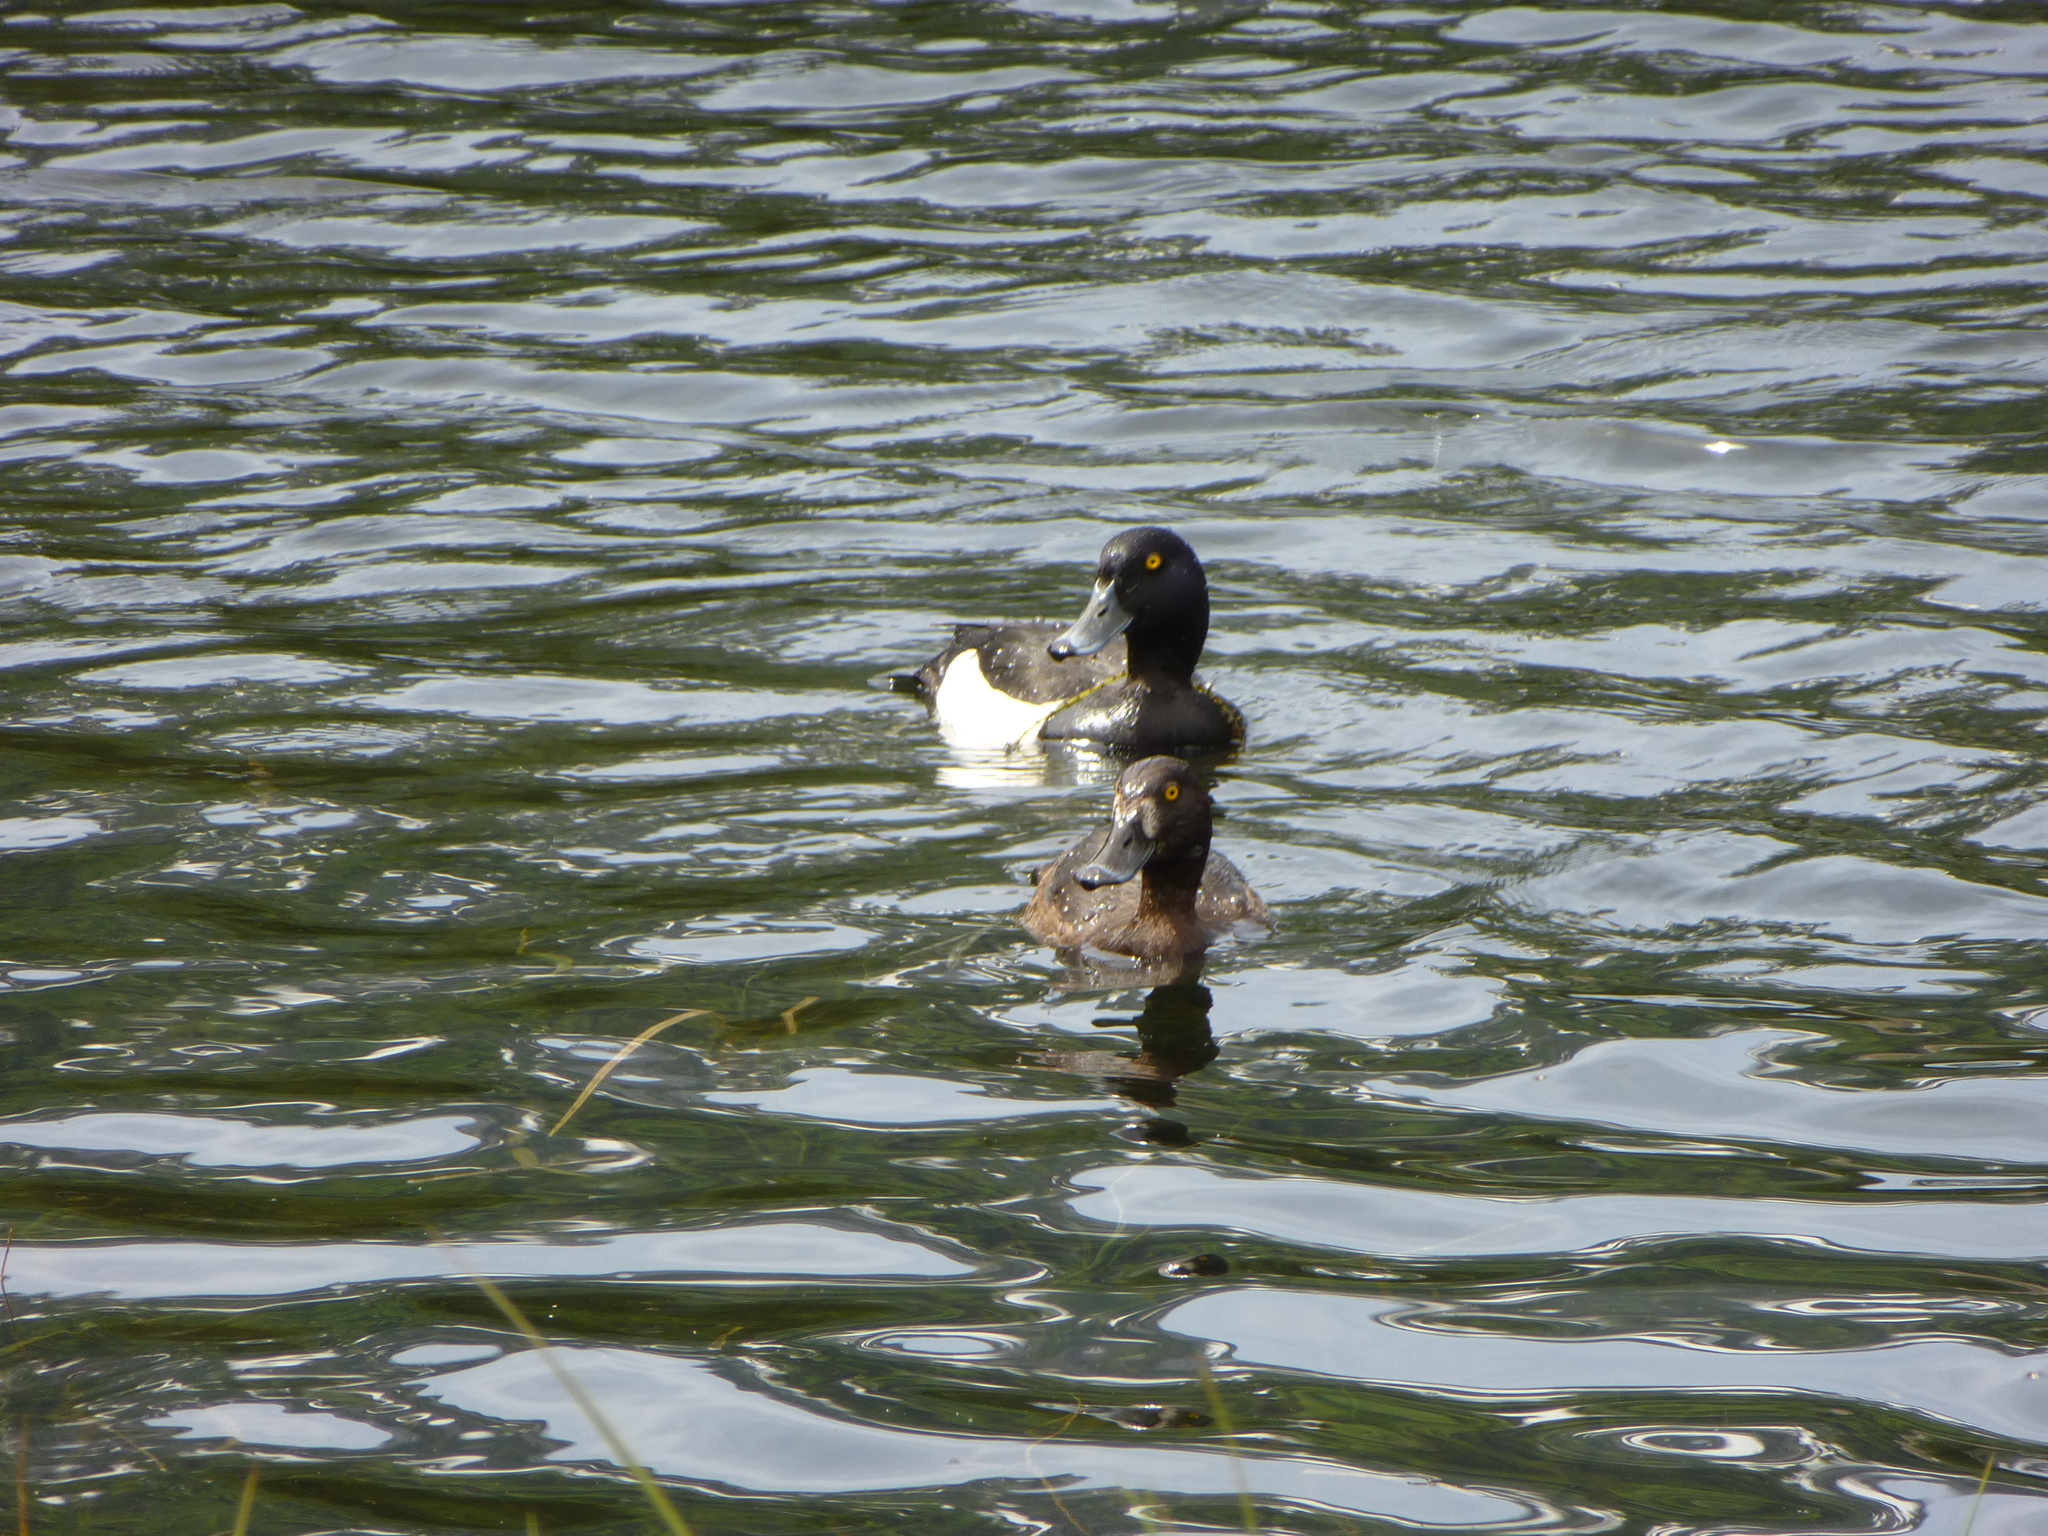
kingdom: Animalia
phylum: Chordata
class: Aves
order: Anseriformes
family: Anatidae
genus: Aythya
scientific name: Aythya fuligula
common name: Tufted duck
